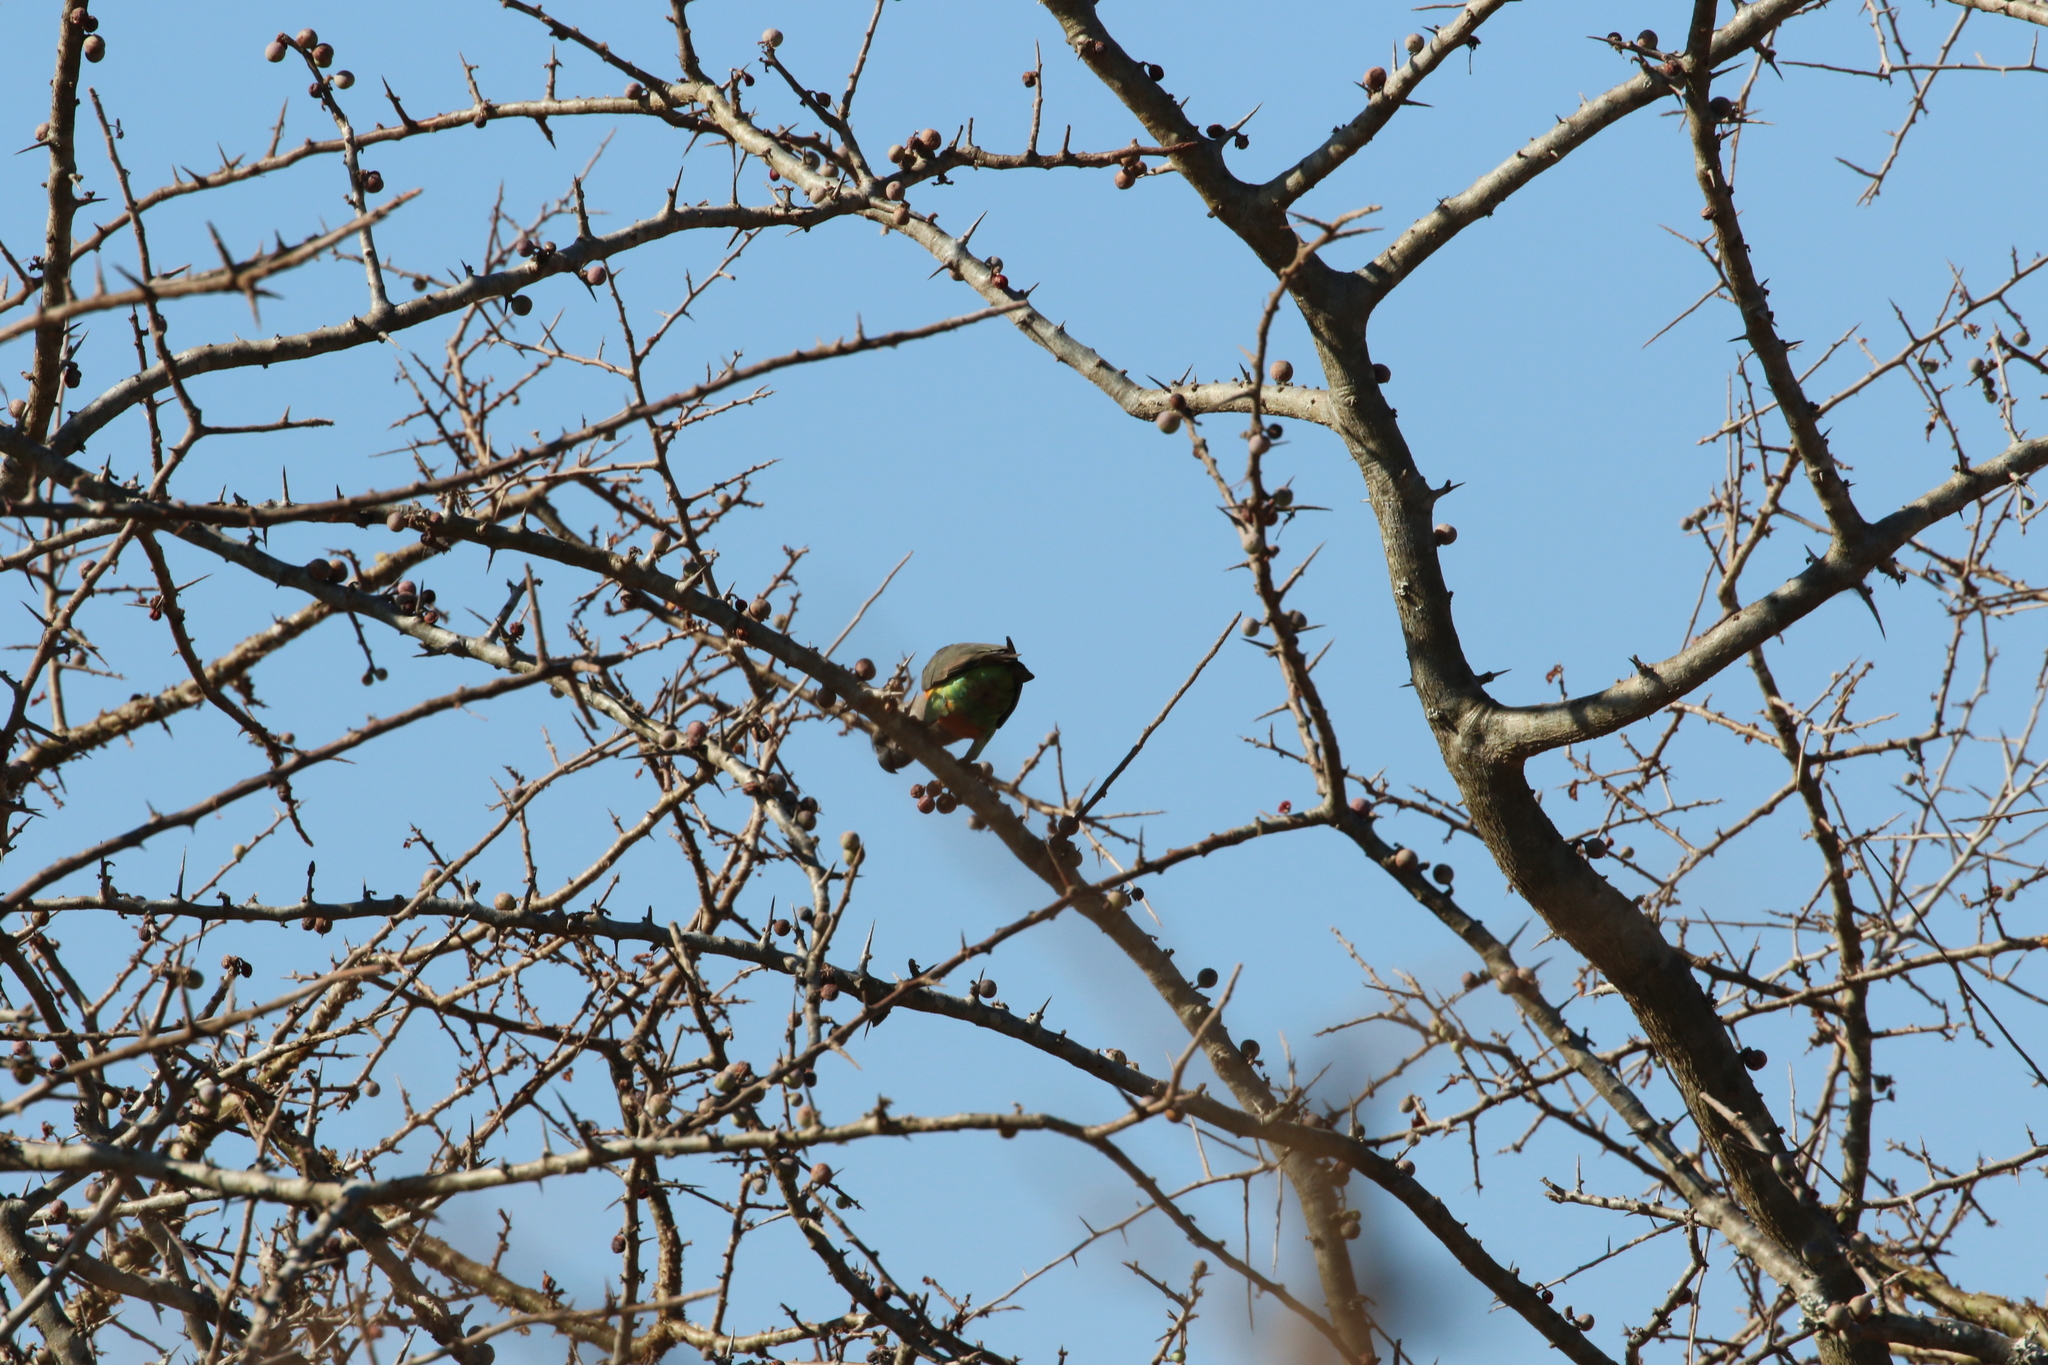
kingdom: Animalia
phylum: Chordata
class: Aves
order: Psittaciformes
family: Psittacidae
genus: Poicephalus
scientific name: Poicephalus rufiventris
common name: Red-bellied parrot
